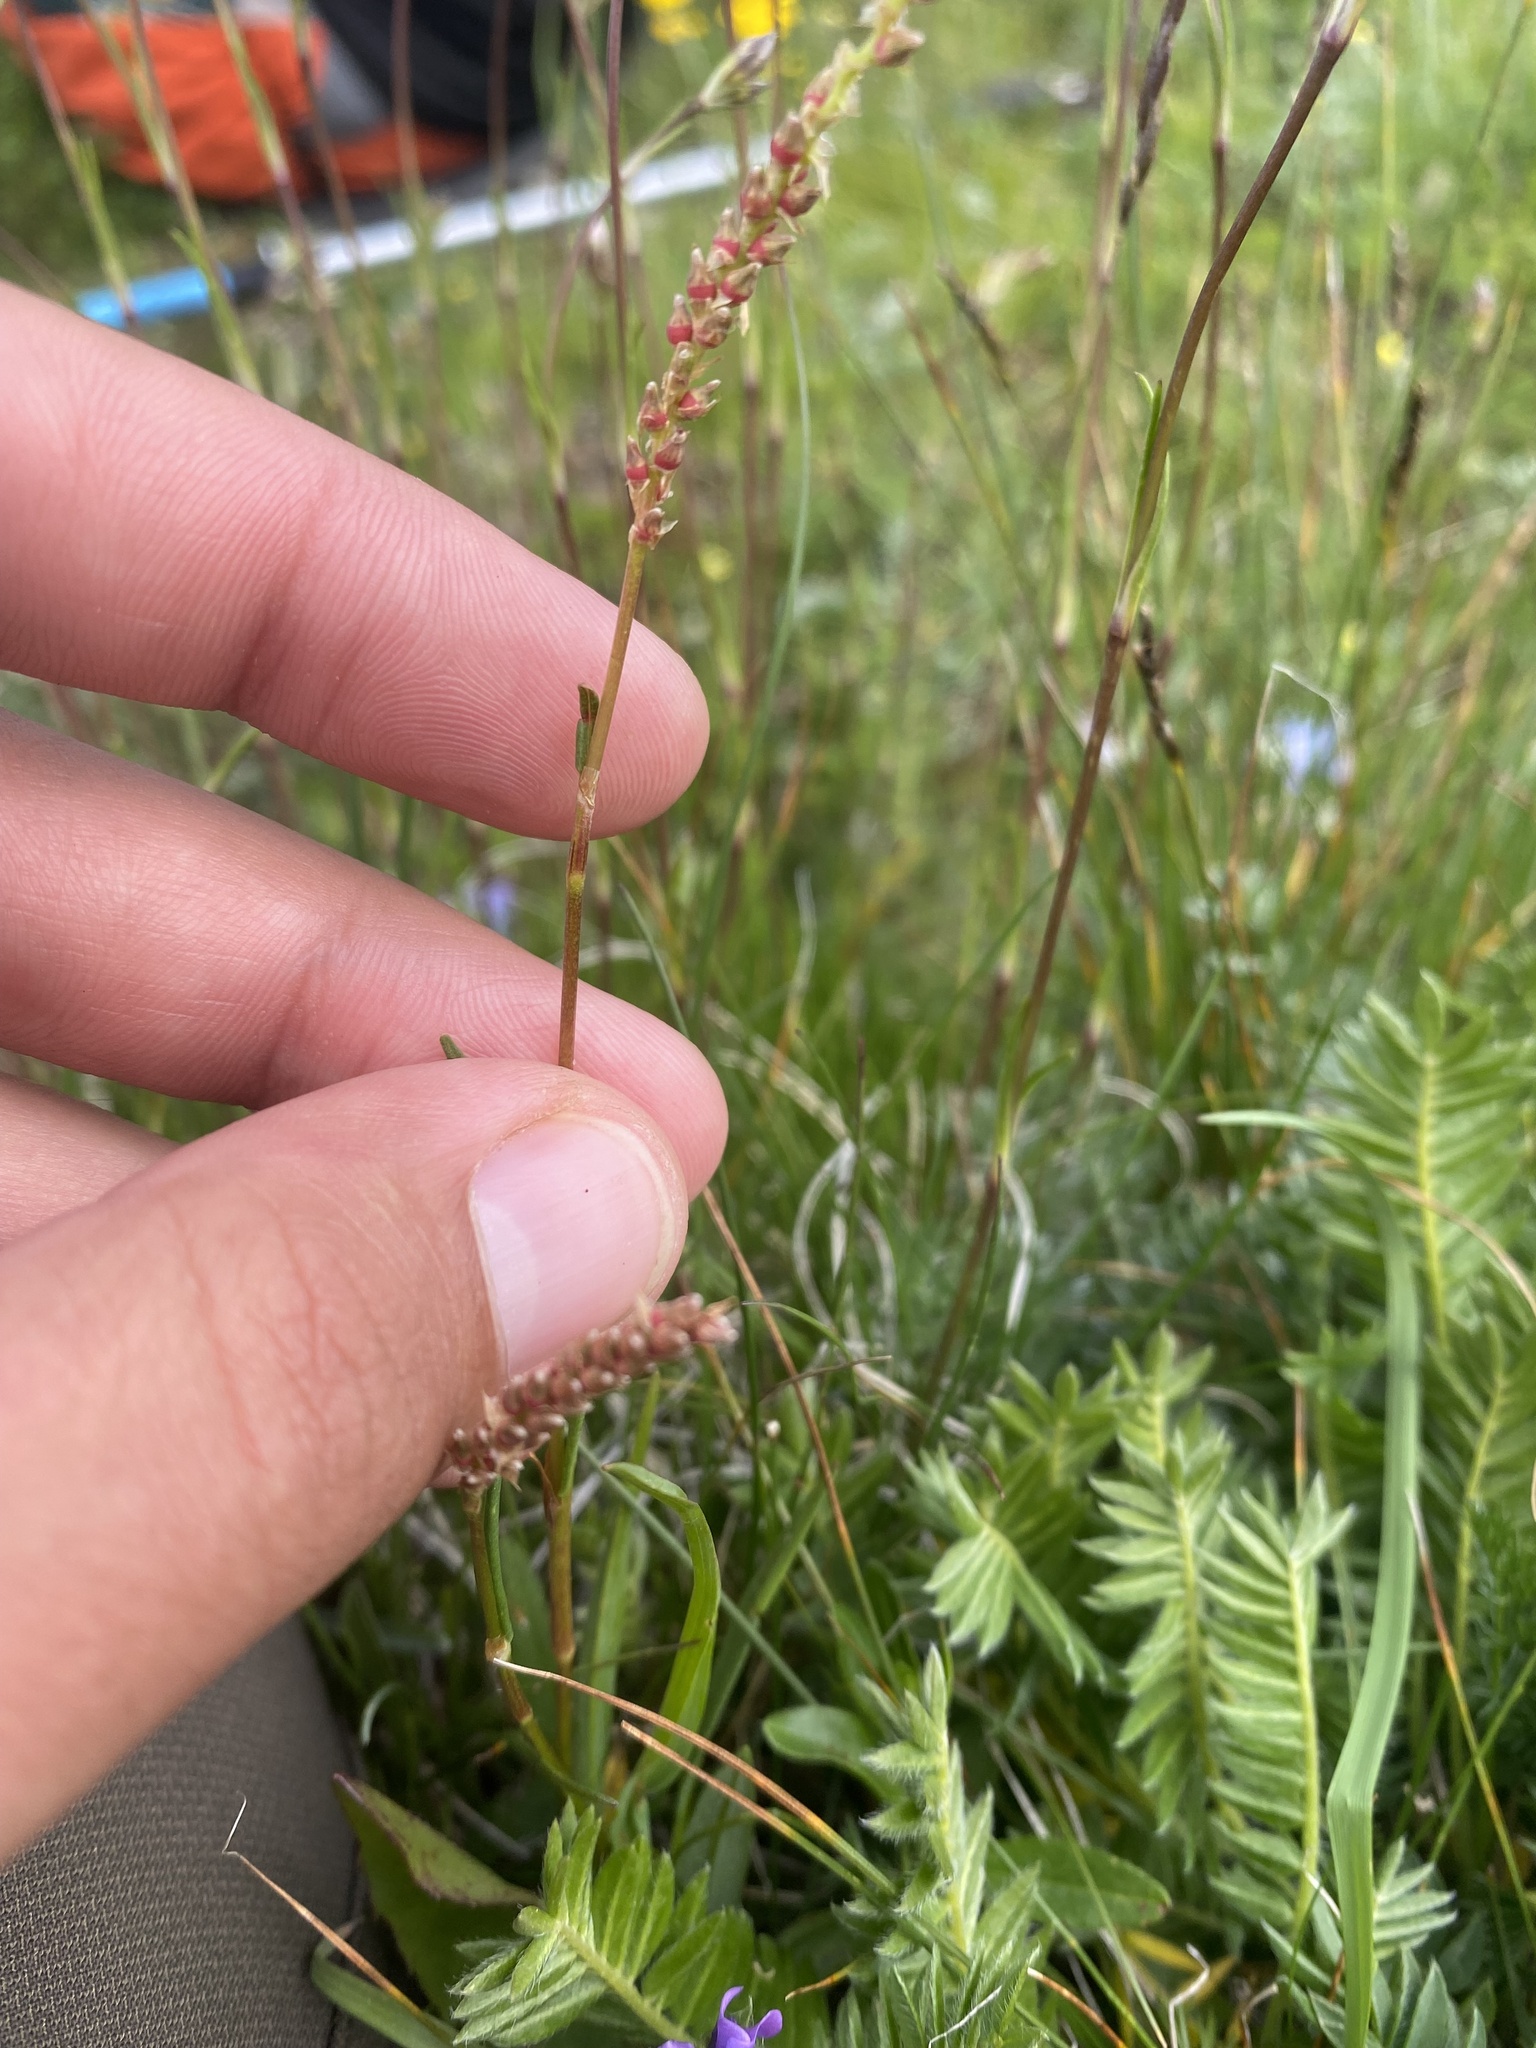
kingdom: Plantae
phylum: Tracheophyta
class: Magnoliopsida
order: Caryophyllales
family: Polygonaceae
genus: Bistorta
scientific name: Bistorta vivipara
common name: Alpine bistort
